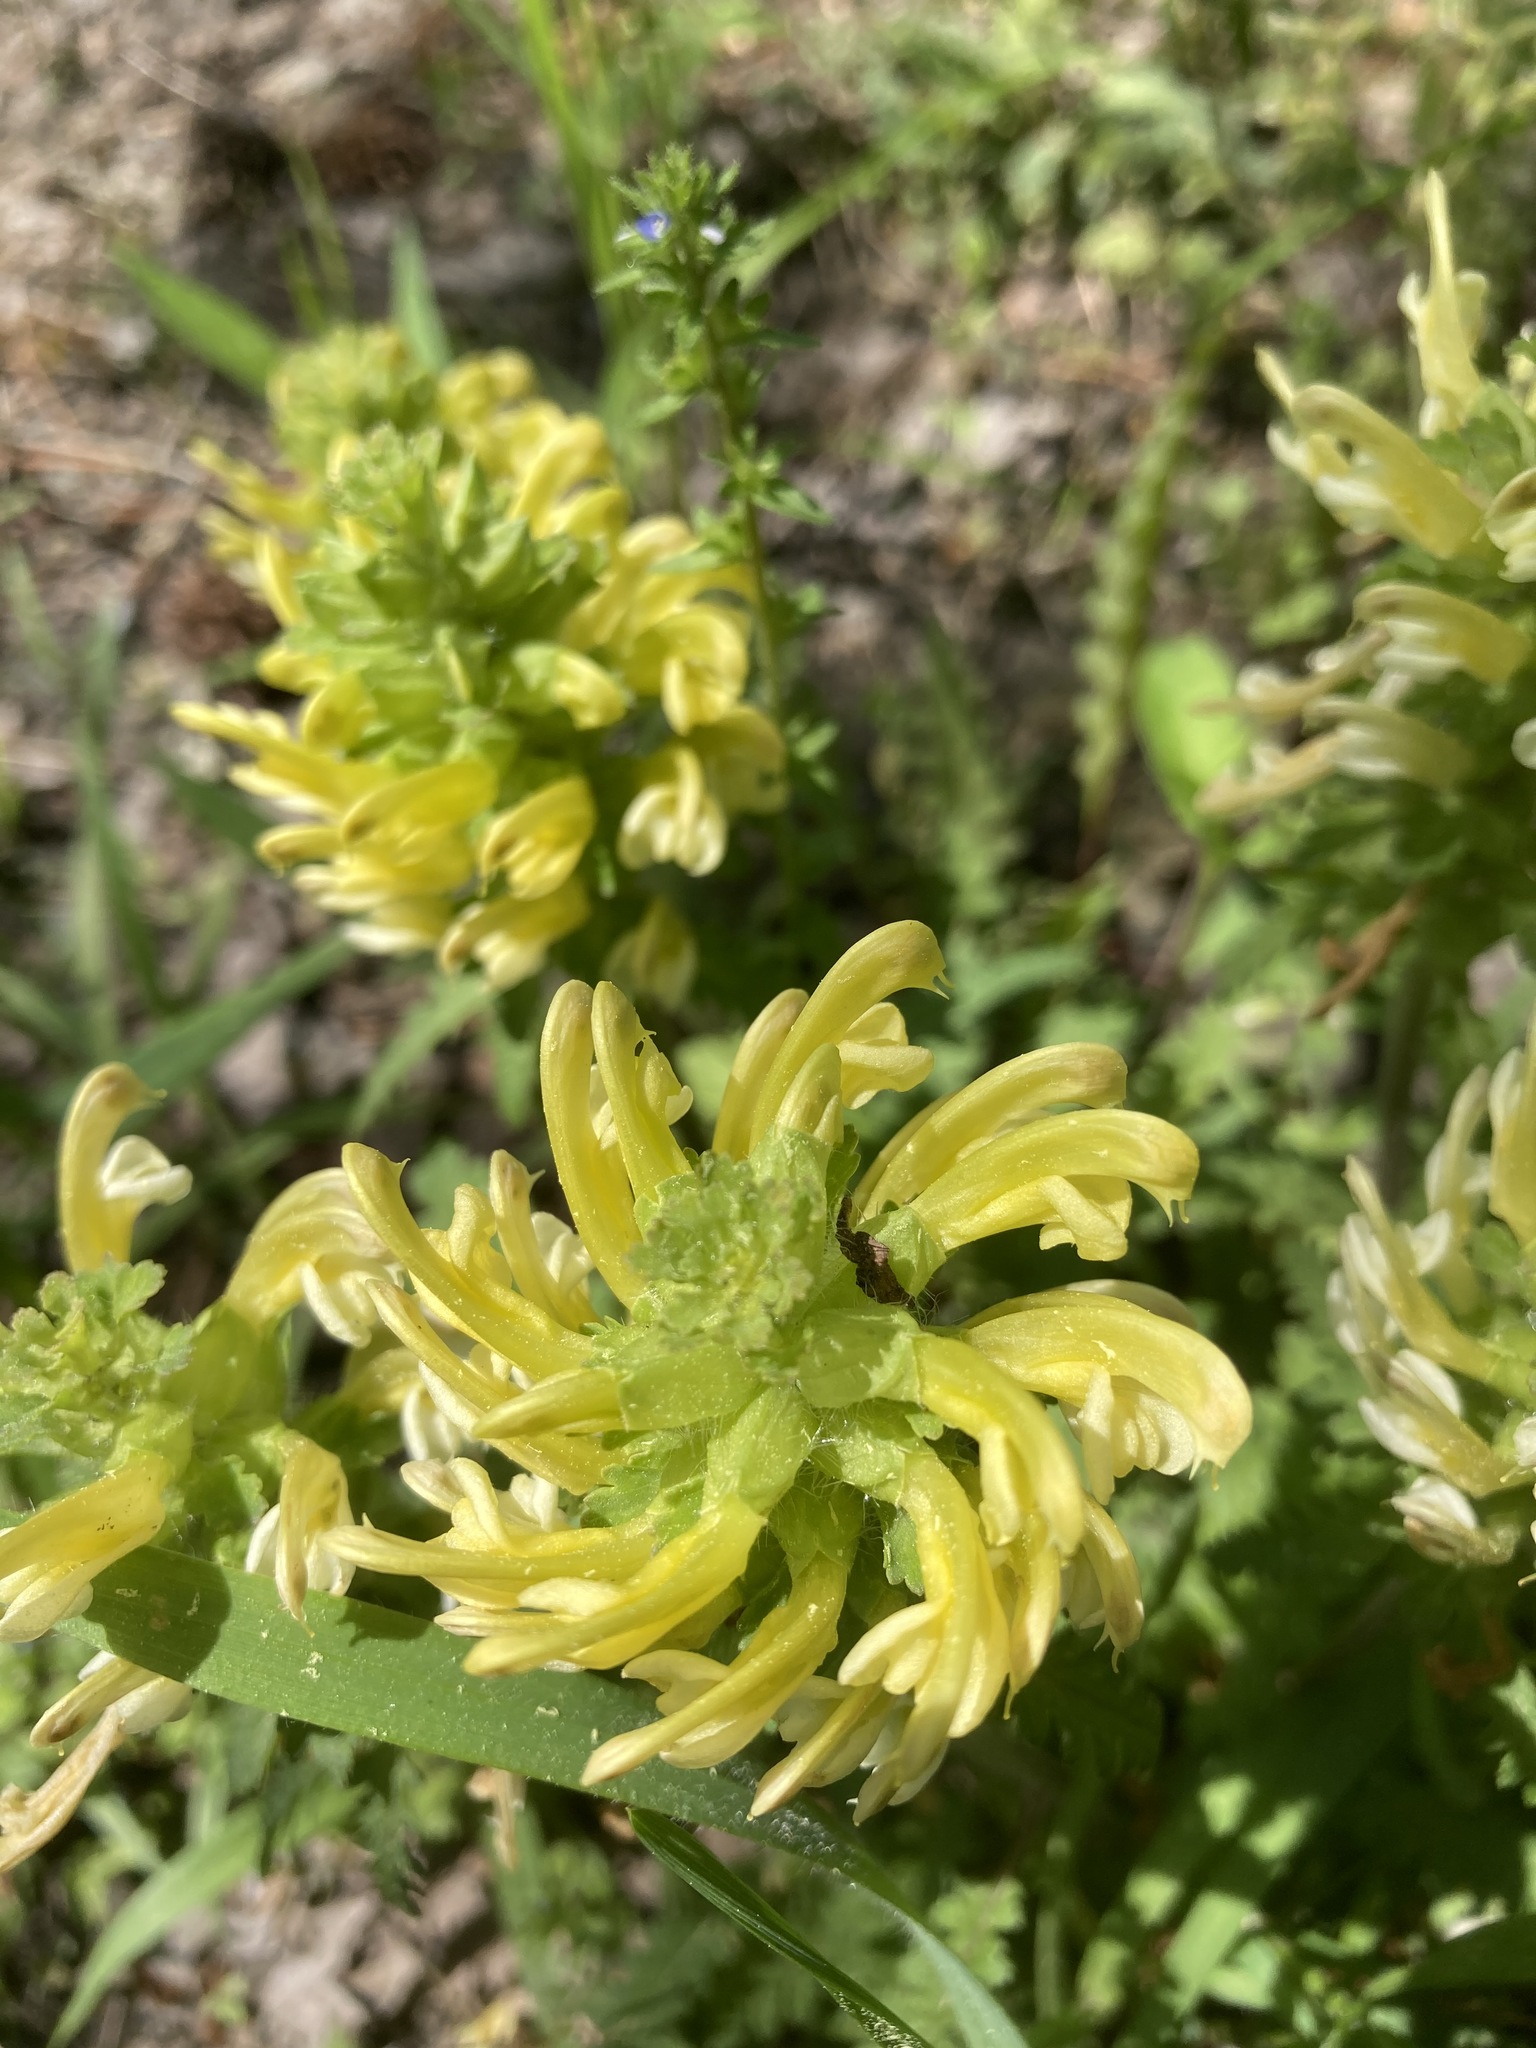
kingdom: Plantae
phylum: Tracheophyta
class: Magnoliopsida
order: Lamiales
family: Orobanchaceae
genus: Pedicularis
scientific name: Pedicularis canadensis
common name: Early lousewort
